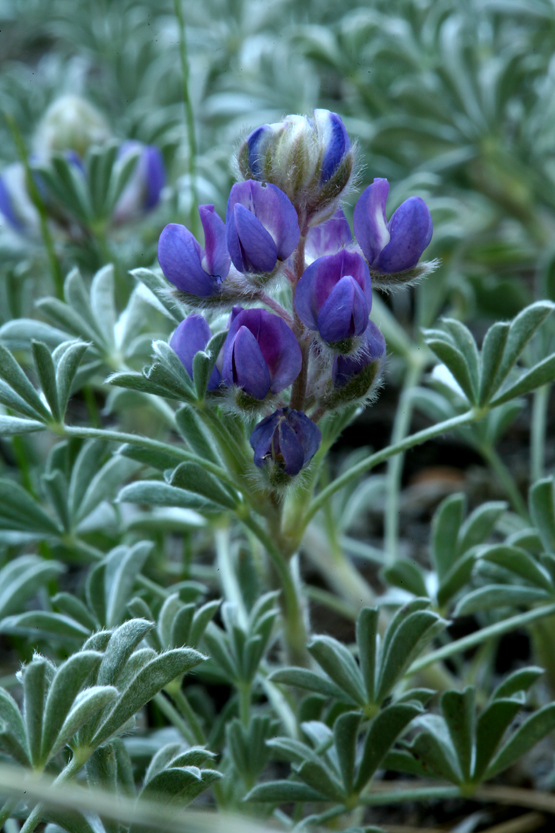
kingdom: Plantae
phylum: Tracheophyta
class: Magnoliopsida
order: Fabales
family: Fabaceae
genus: Lupinus
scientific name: Lupinus breweri
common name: Brewer's lupine
